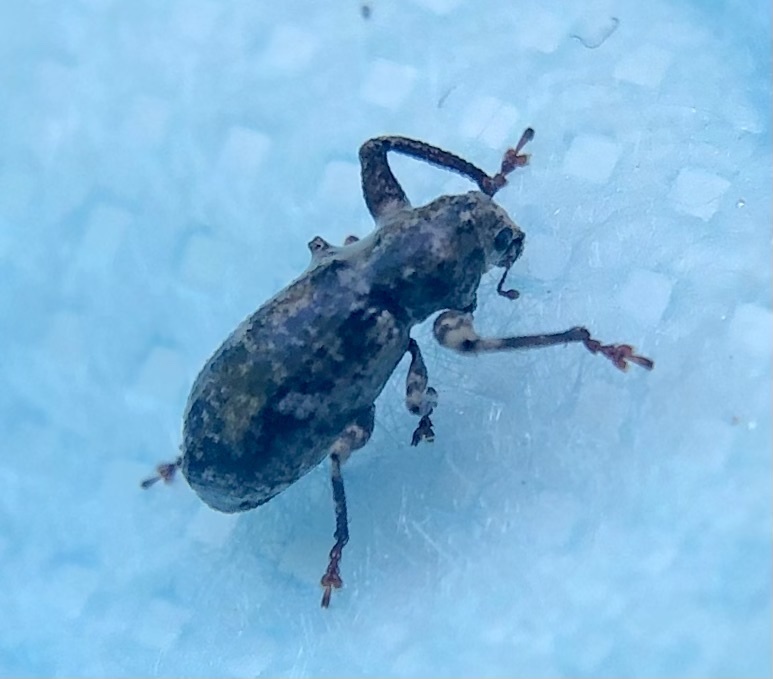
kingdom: Animalia
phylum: Arthropoda
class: Insecta
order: Coleoptera
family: Curculionidae
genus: Pandeleteius
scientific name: Pandeleteius hilaris
